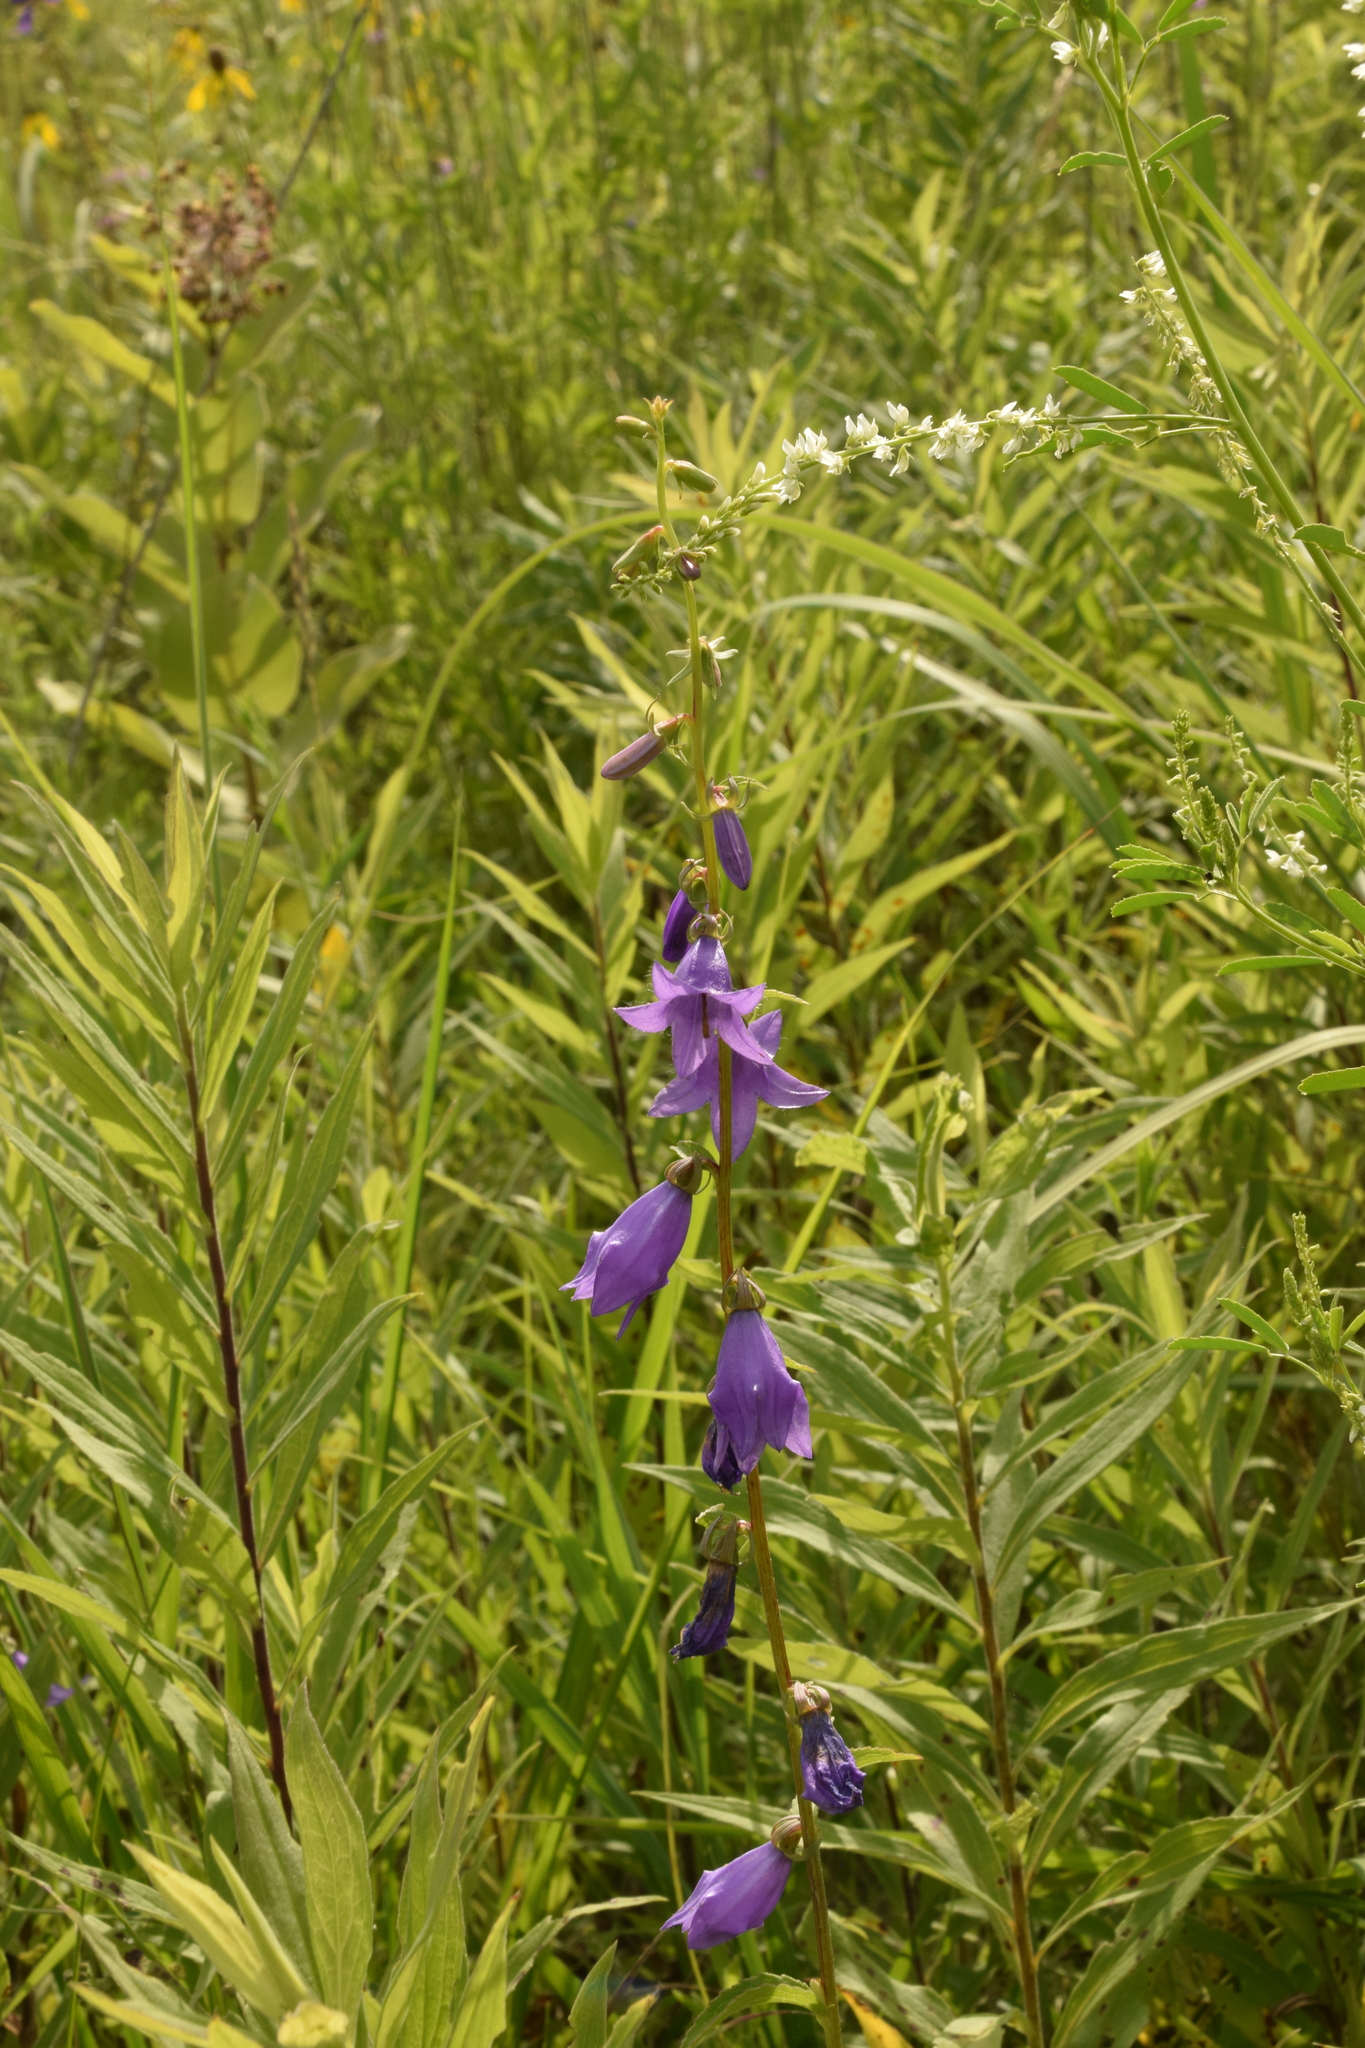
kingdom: Plantae
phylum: Tracheophyta
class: Magnoliopsida
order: Asterales
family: Campanulaceae
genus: Campanula
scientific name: Campanula rapunculoides
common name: Creeping bellflower
